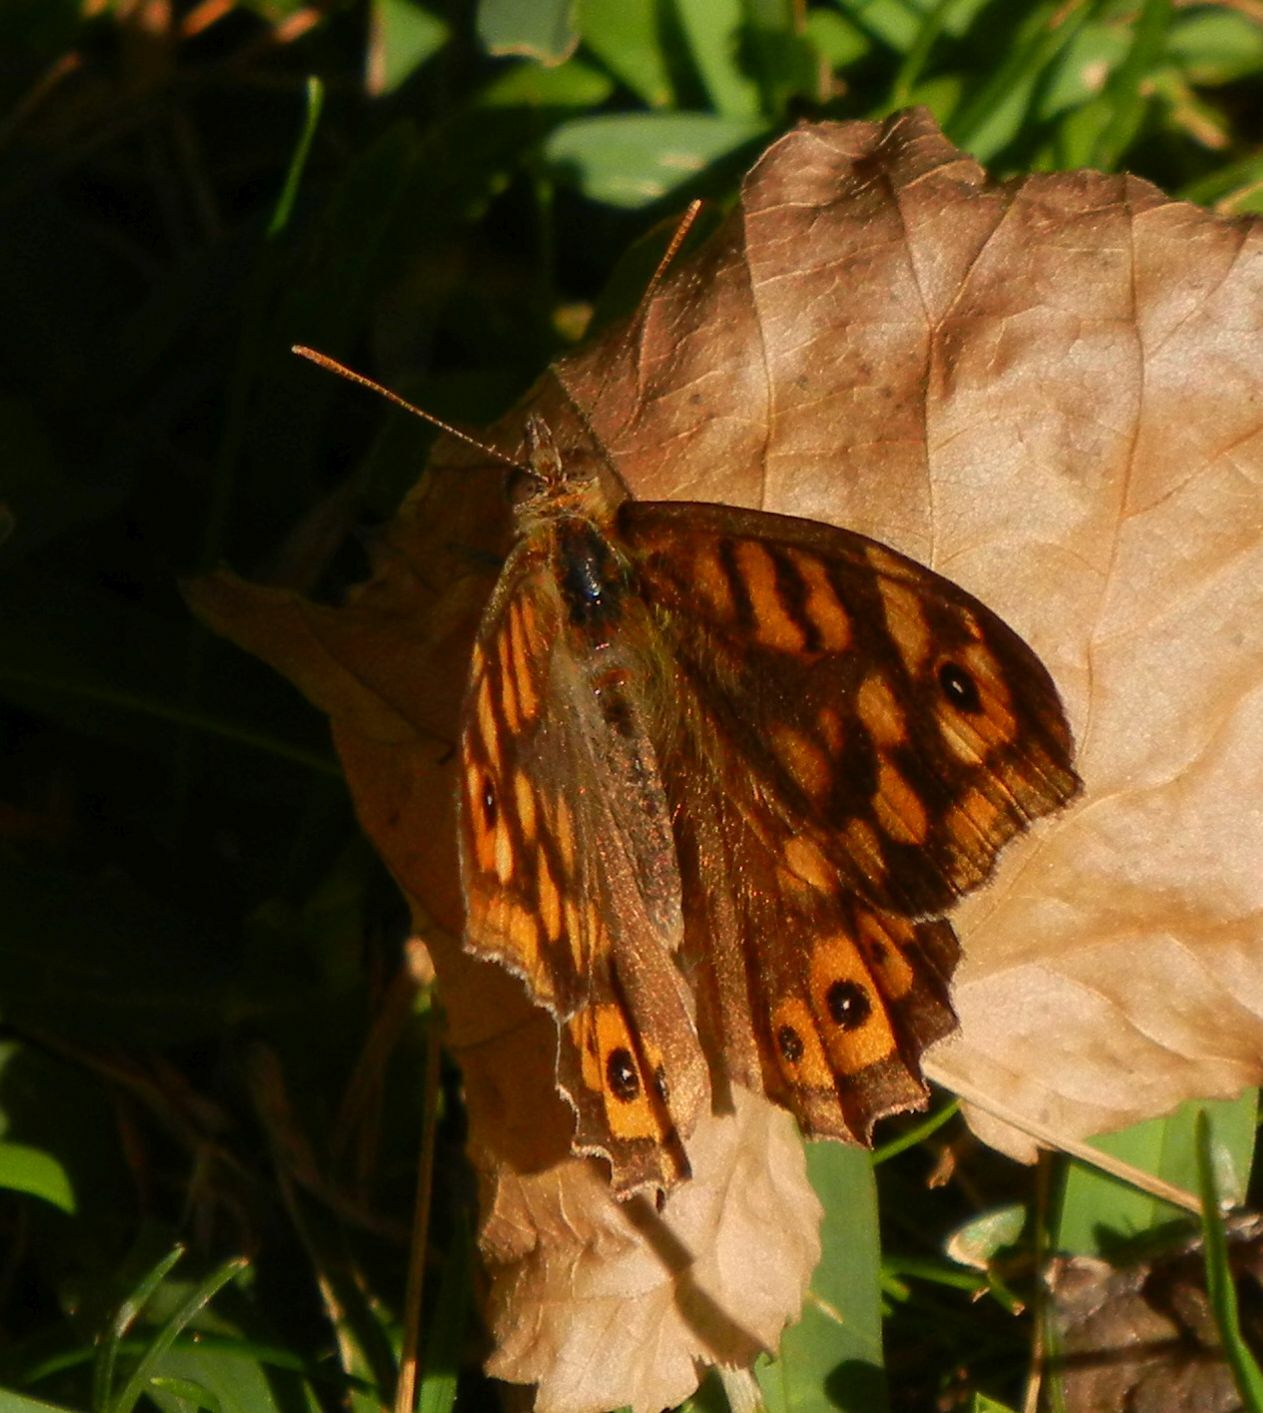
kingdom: Animalia
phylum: Arthropoda
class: Insecta
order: Lepidoptera
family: Nymphalidae
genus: Pararge
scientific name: Pararge aegeria
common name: Speckled wood
